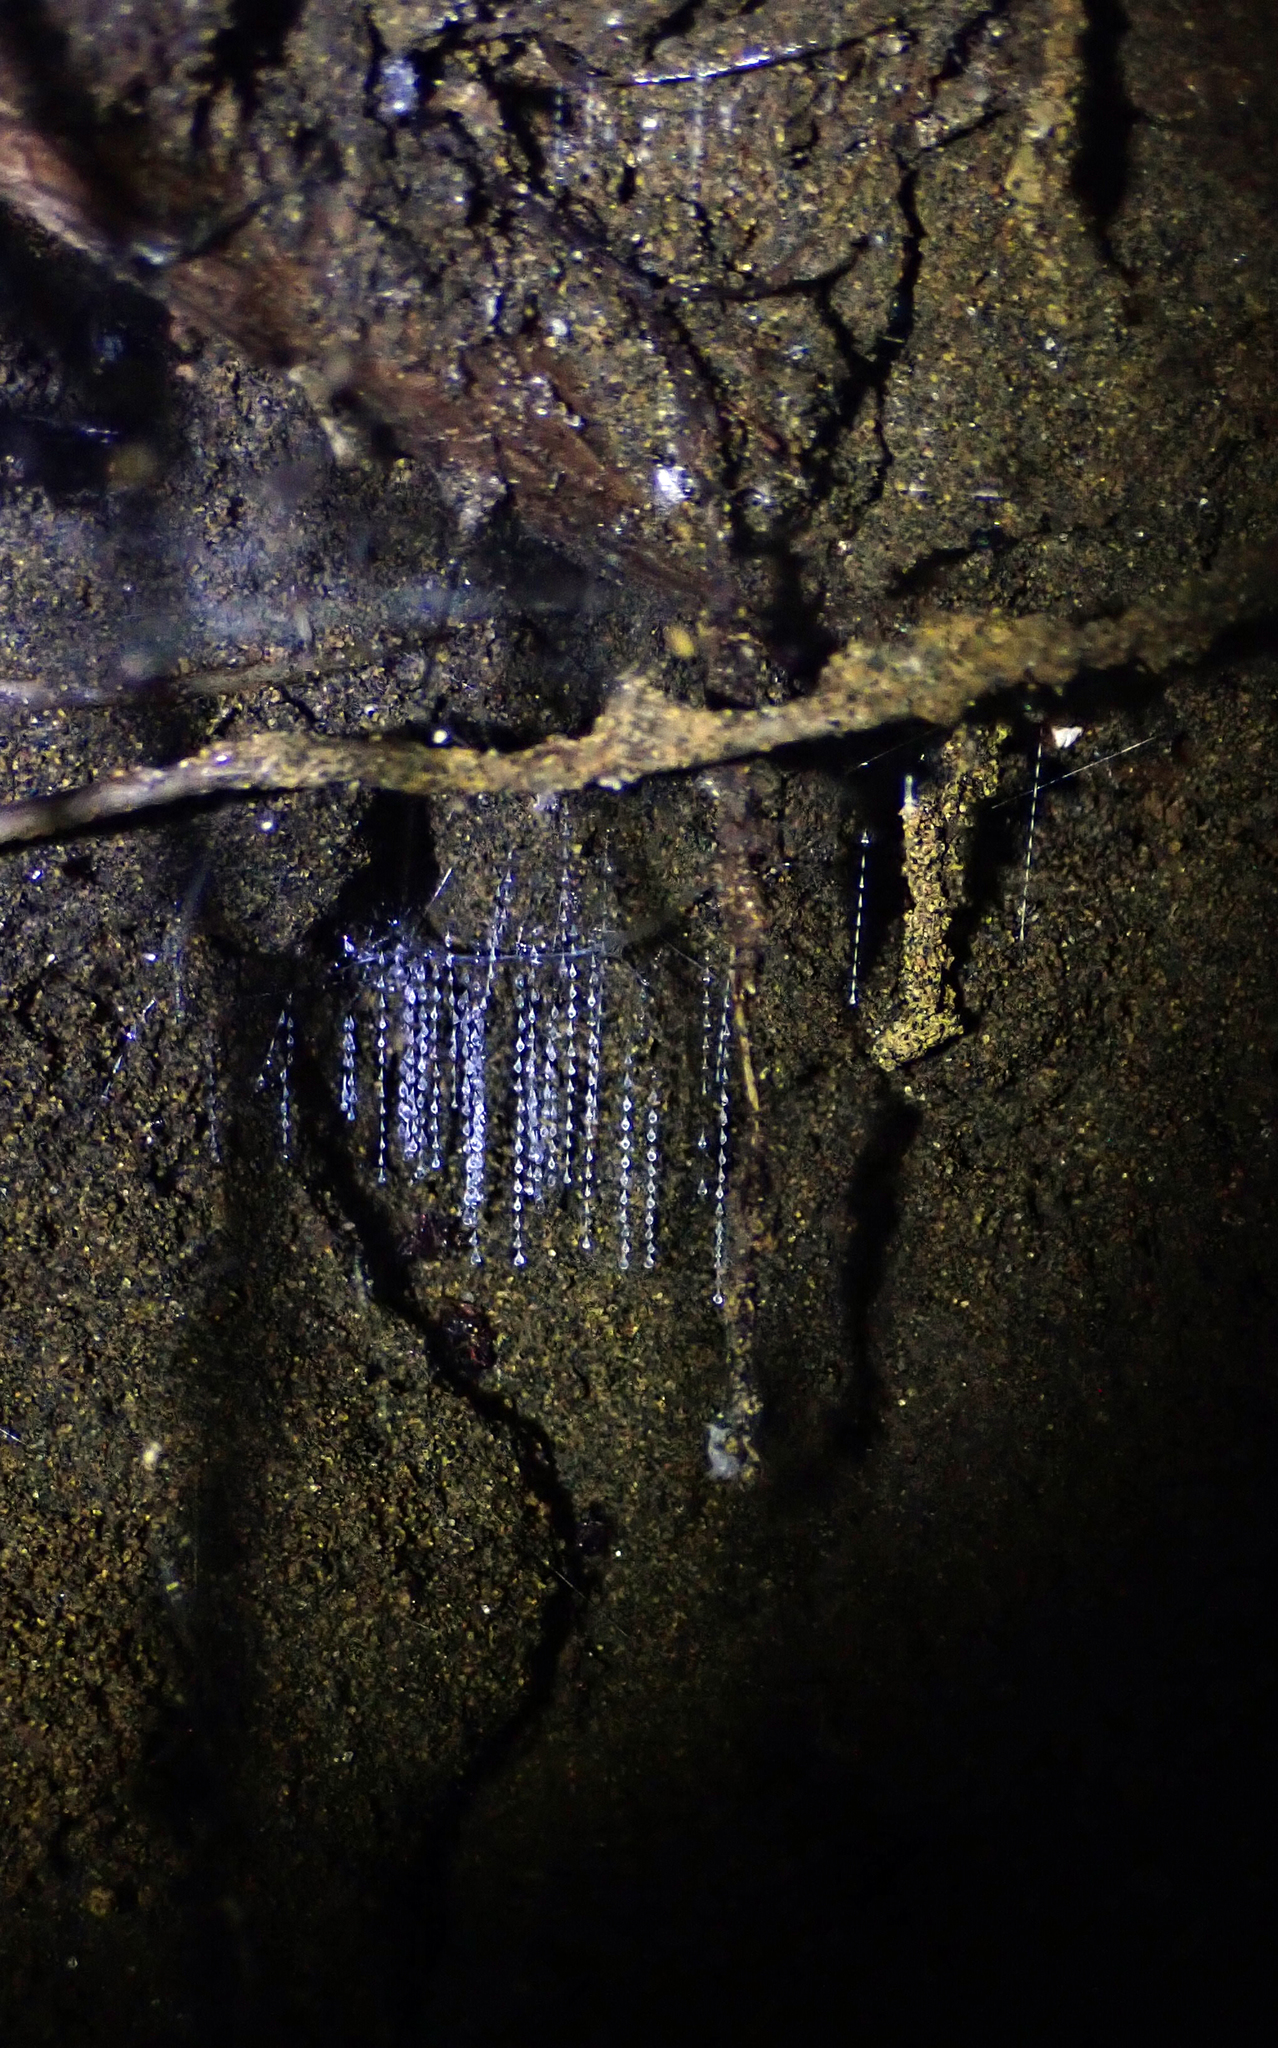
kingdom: Animalia
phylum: Arthropoda
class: Insecta
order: Diptera
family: Keroplatidae
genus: Arachnocampa
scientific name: Arachnocampa luminosa
